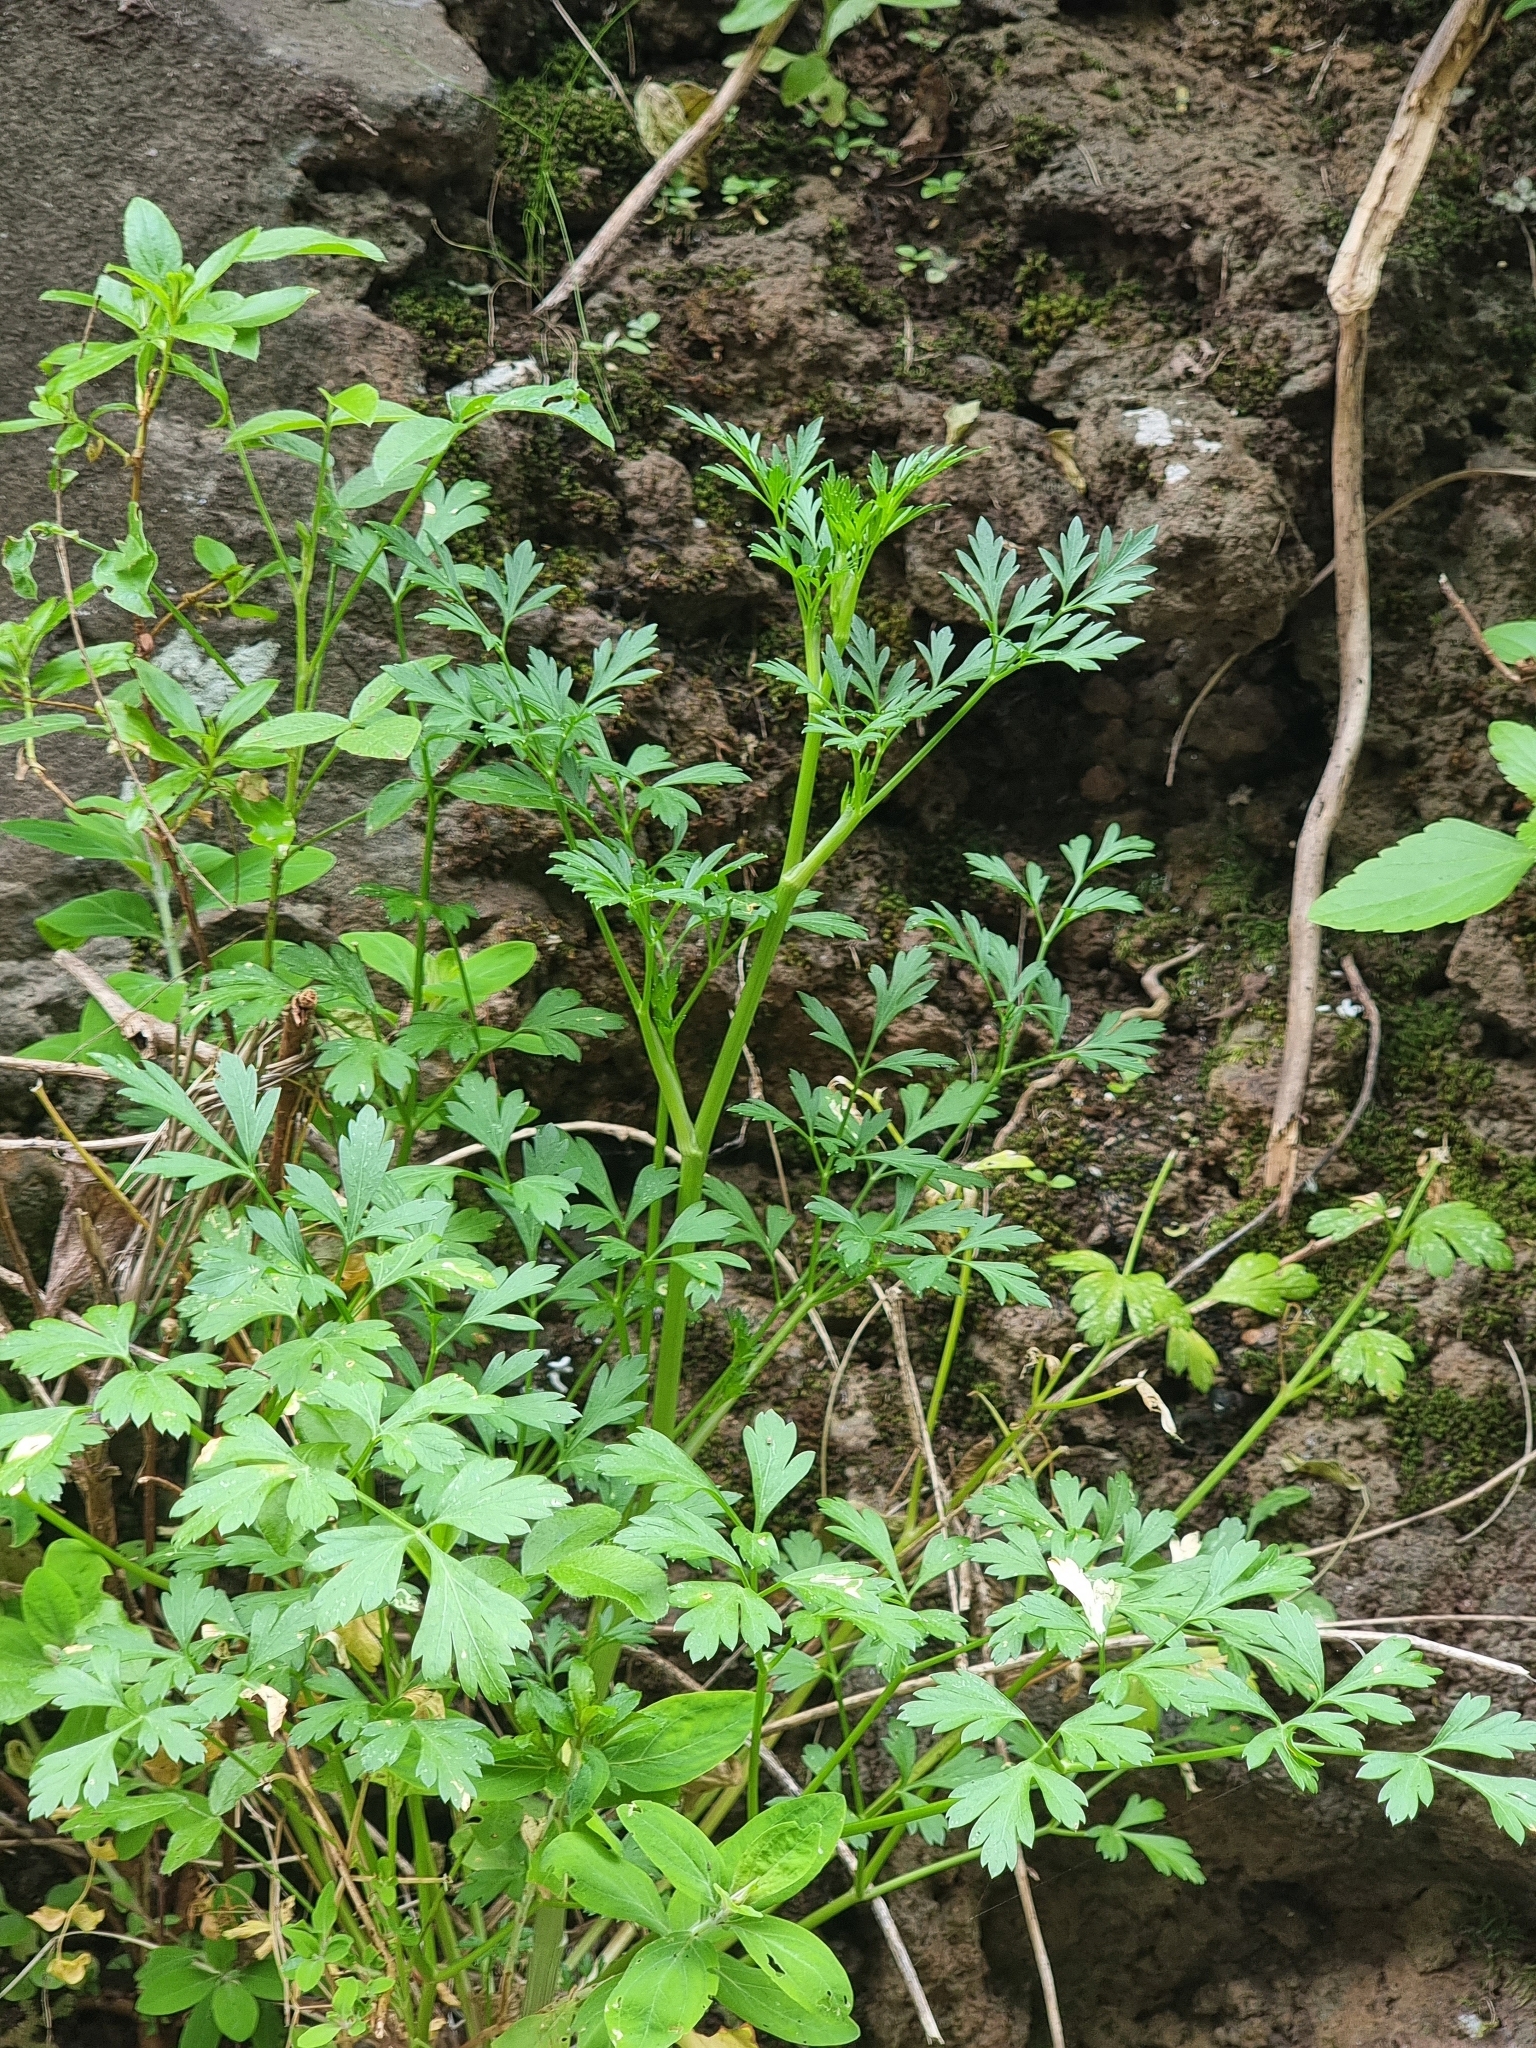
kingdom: Plantae
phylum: Tracheophyta
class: Magnoliopsida
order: Apiales
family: Apiaceae
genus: Petroselinum
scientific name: Petroselinum crispum
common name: Parsley
